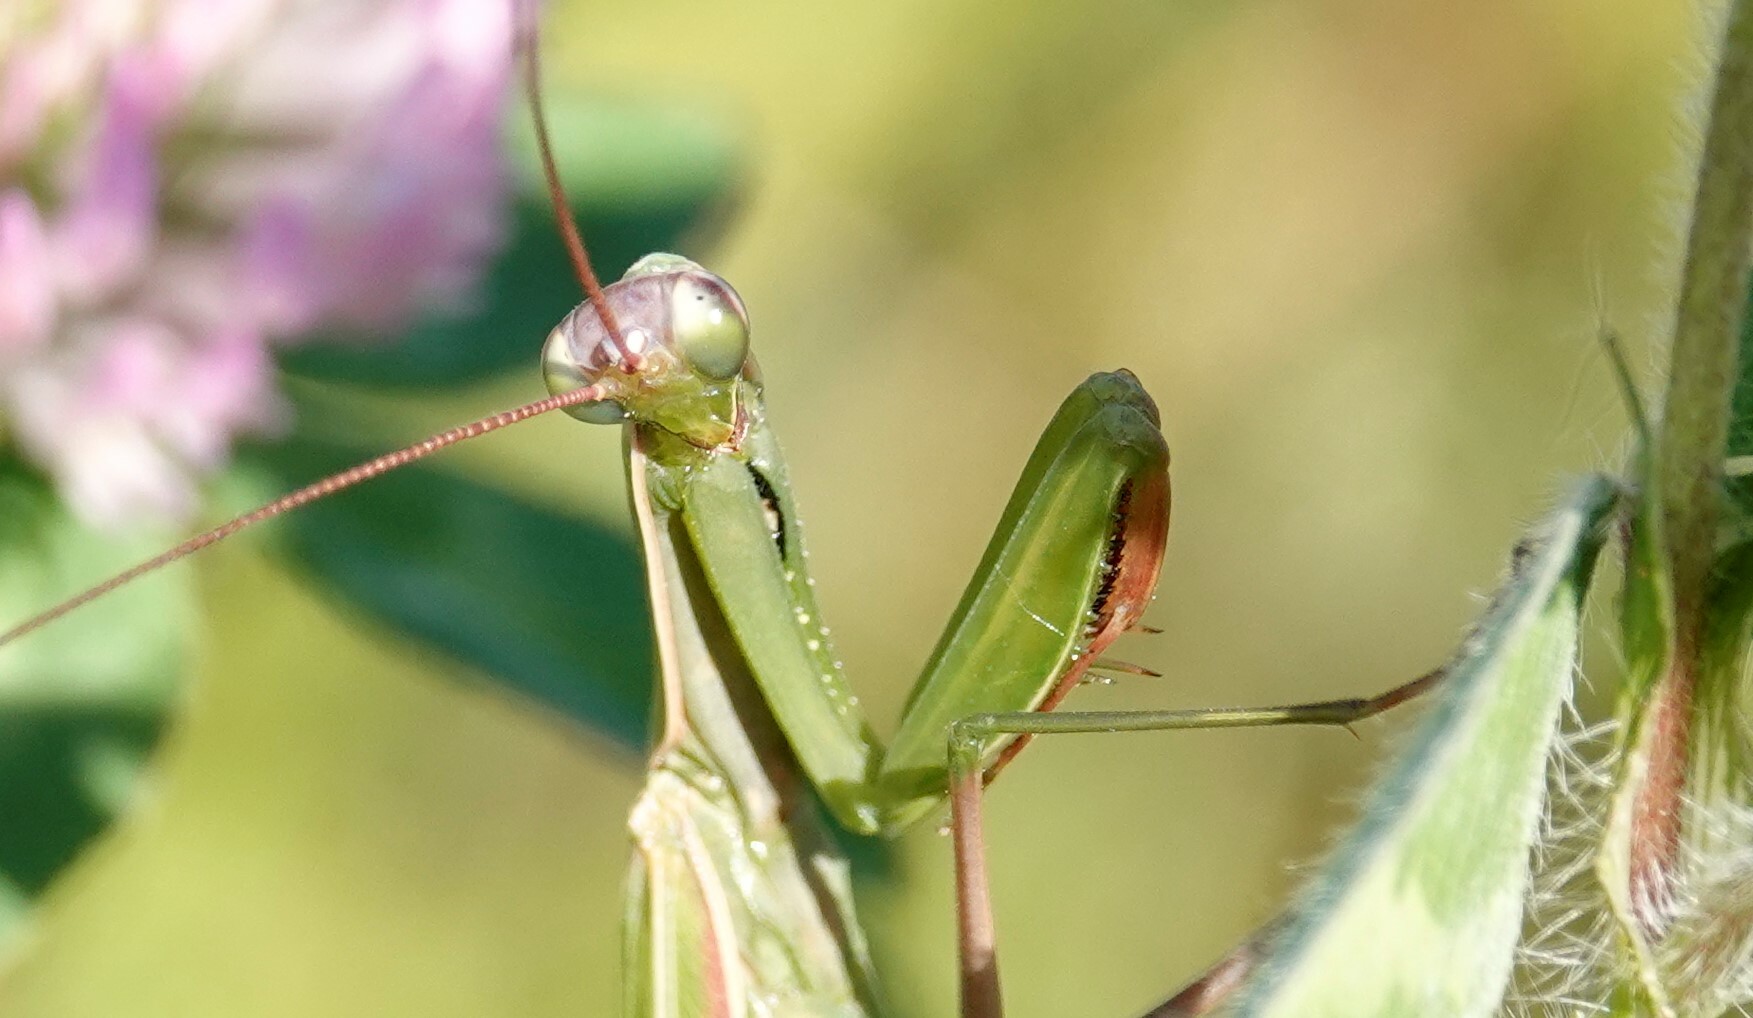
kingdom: Animalia
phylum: Arthropoda
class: Insecta
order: Mantodea
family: Mantidae
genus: Mantis
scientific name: Mantis religiosa
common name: Praying mantis
